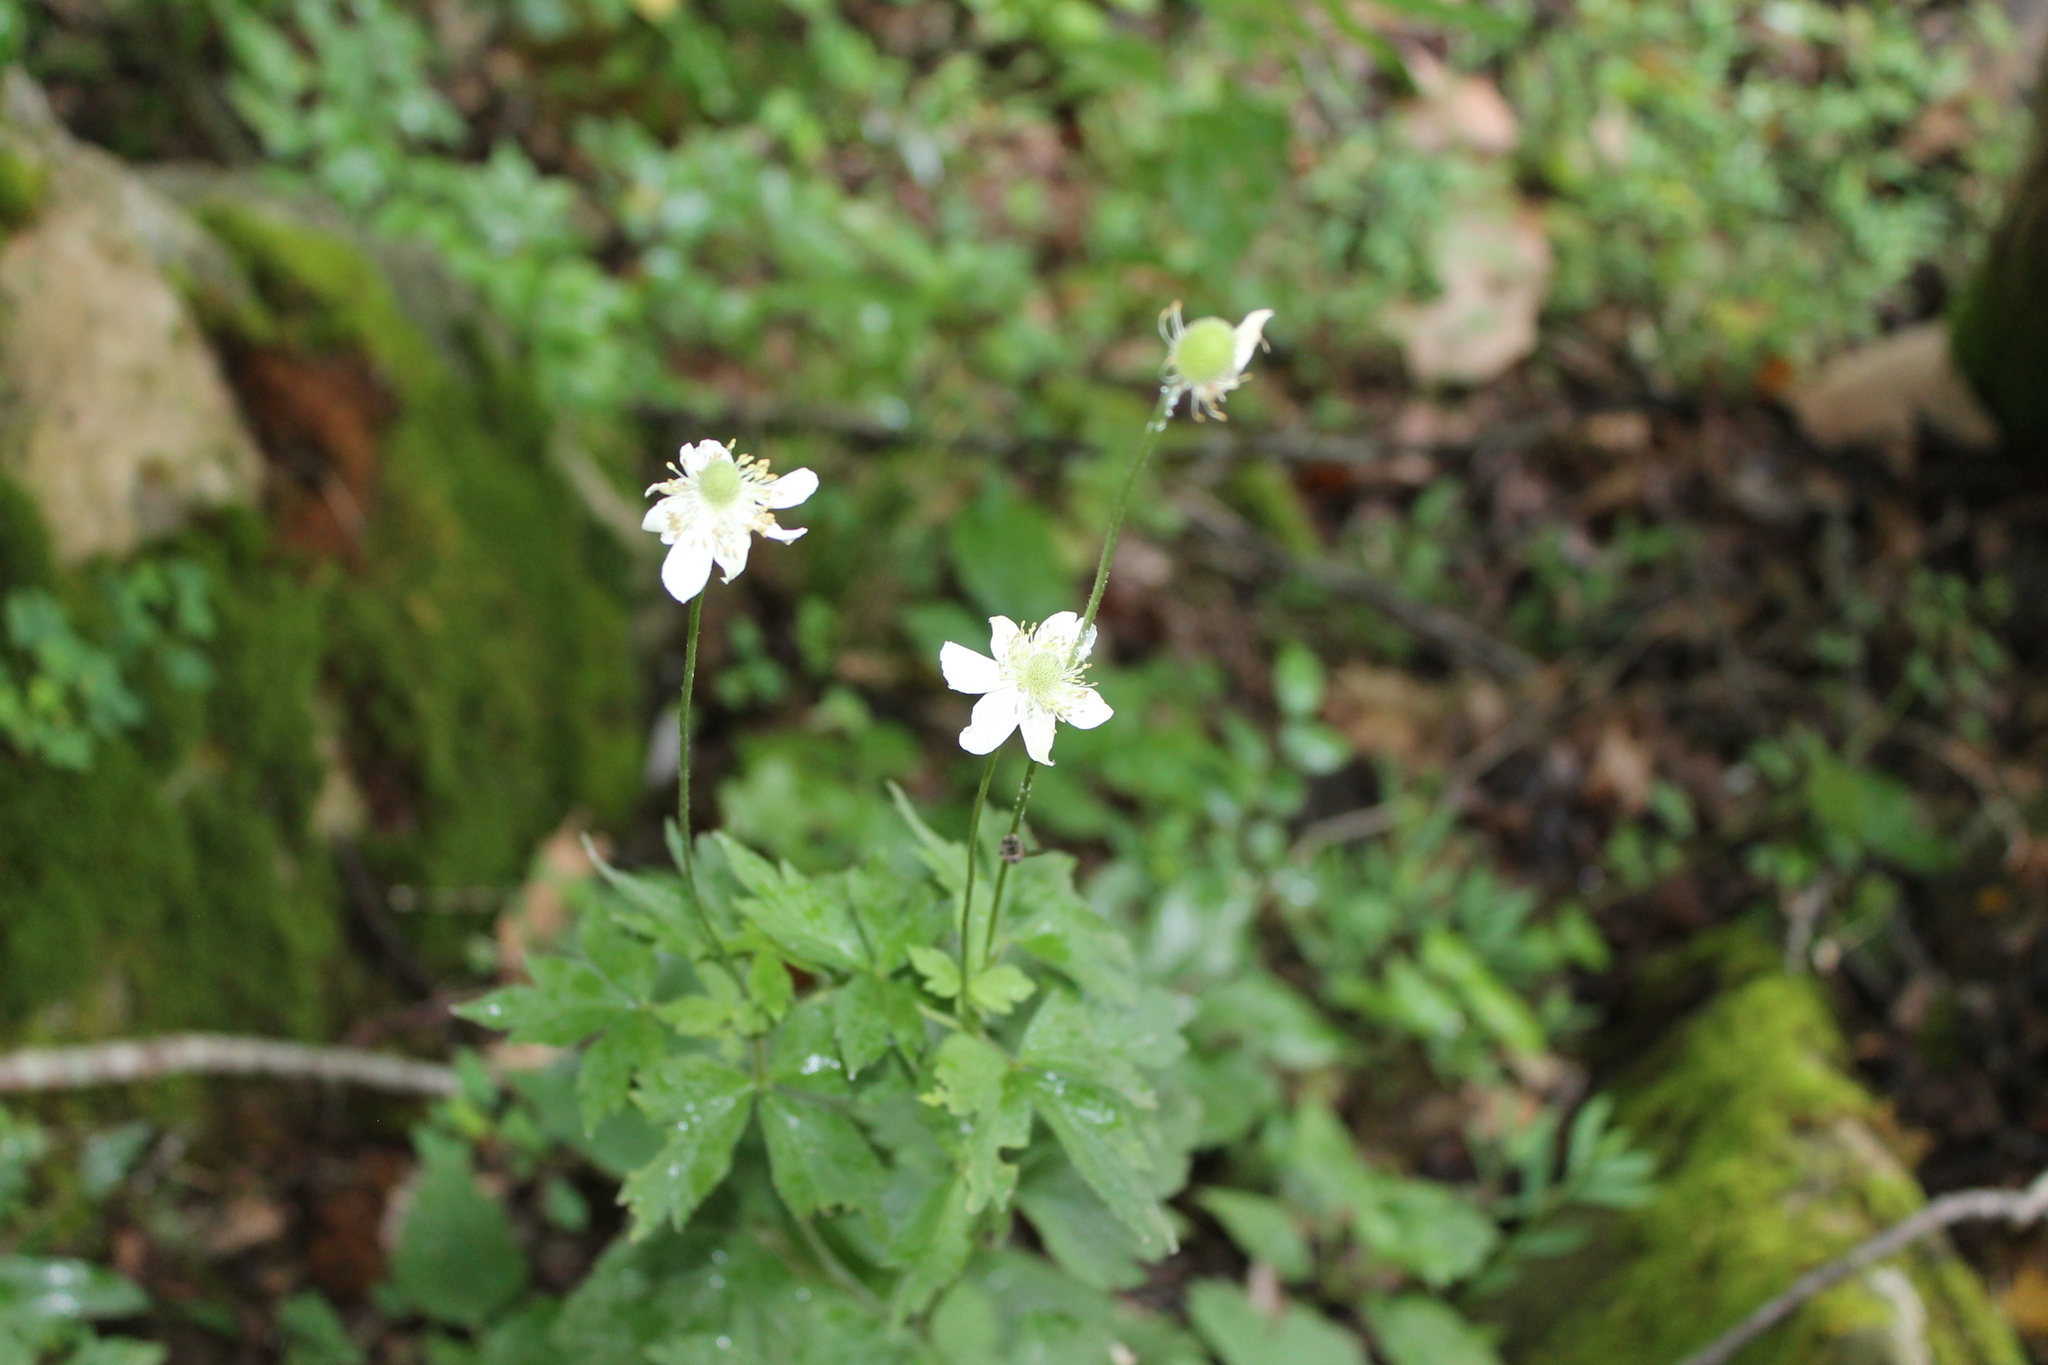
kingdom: Plantae
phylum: Tracheophyta
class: Magnoliopsida
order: Ranunculales
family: Ranunculaceae
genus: Anemone
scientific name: Anemone virginiana
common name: Tall anemone
